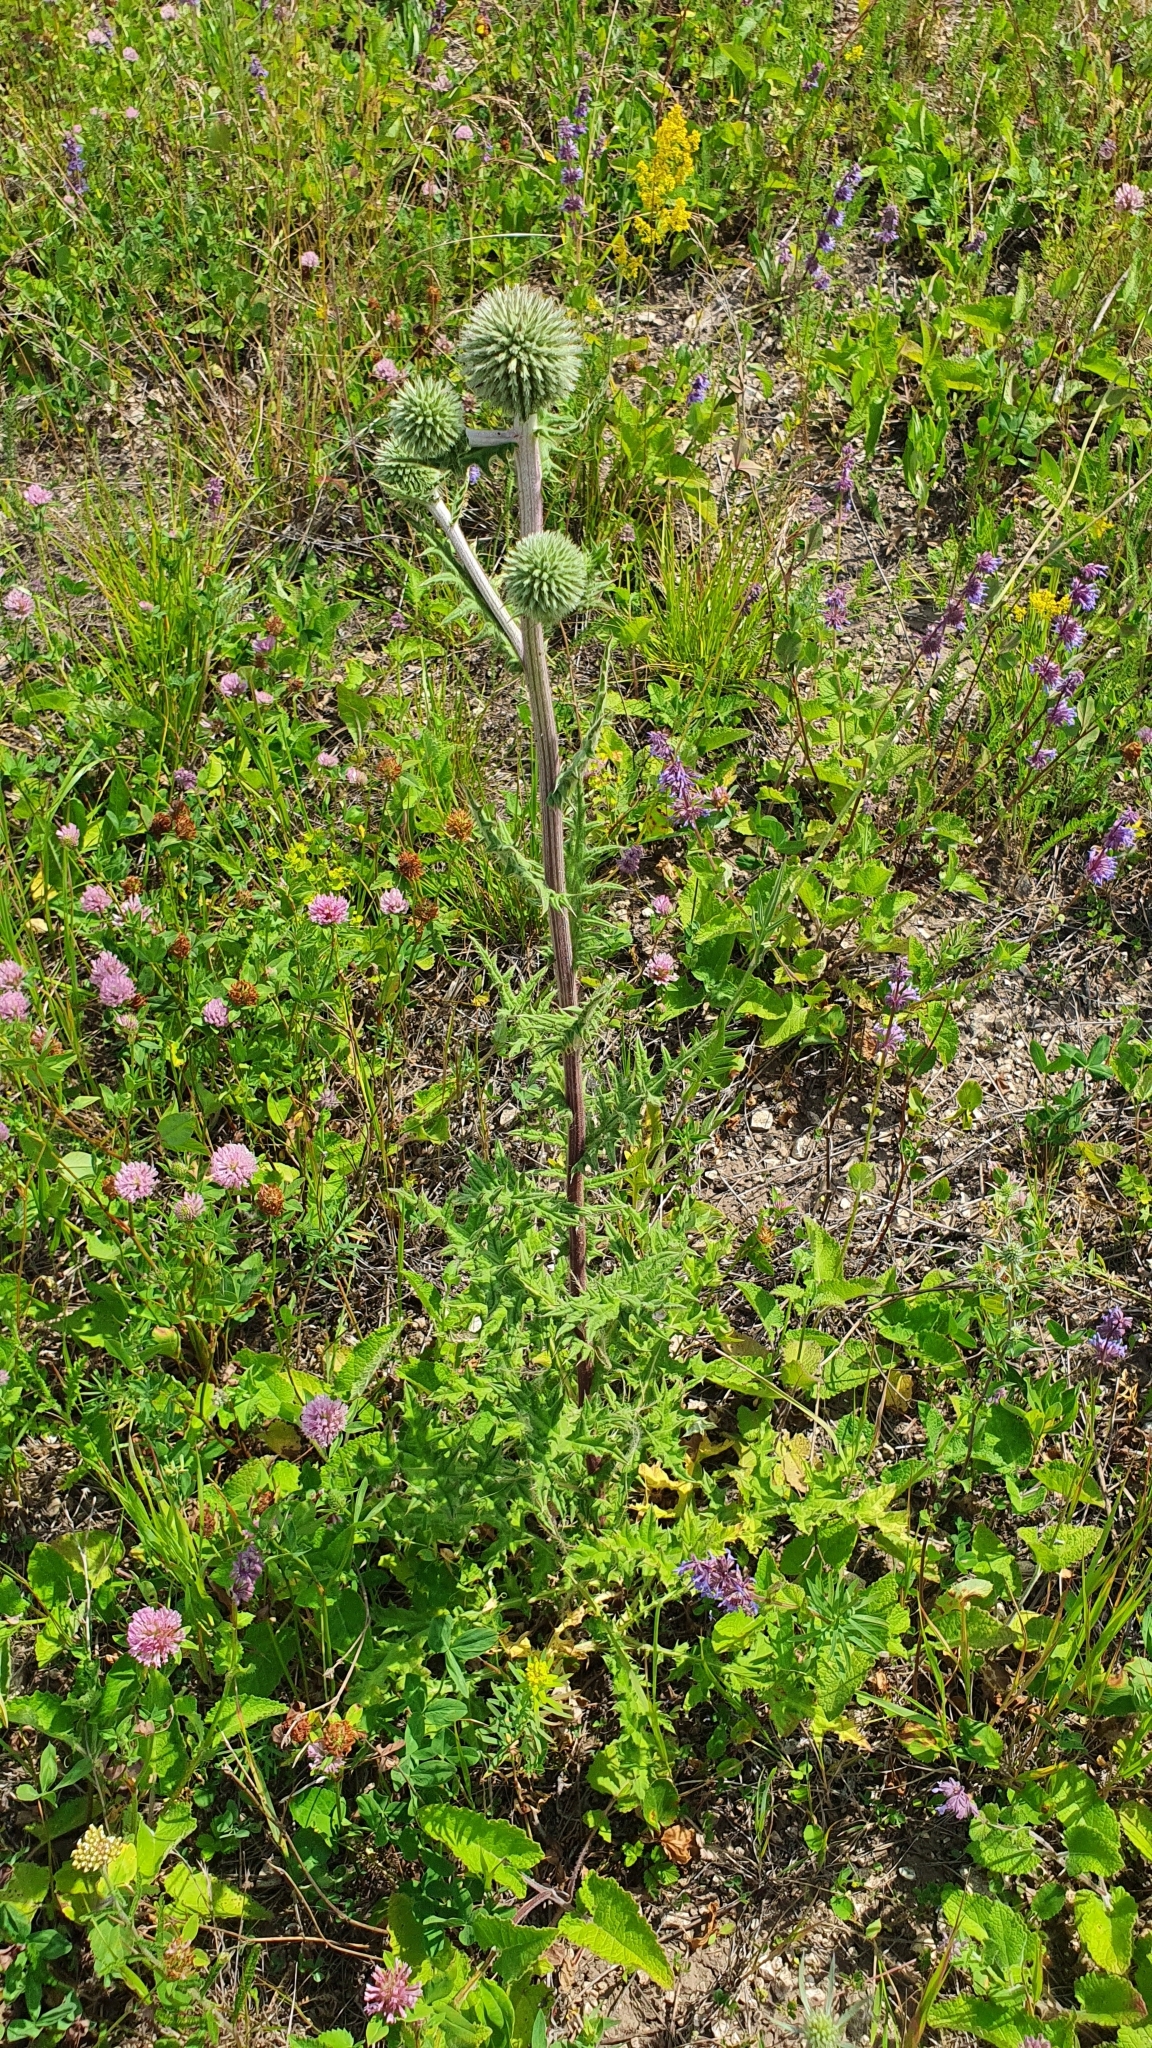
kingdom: Plantae
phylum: Tracheophyta
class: Magnoliopsida
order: Asterales
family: Asteraceae
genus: Echinops
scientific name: Echinops sphaerocephalus
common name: Glandular globe-thistle
